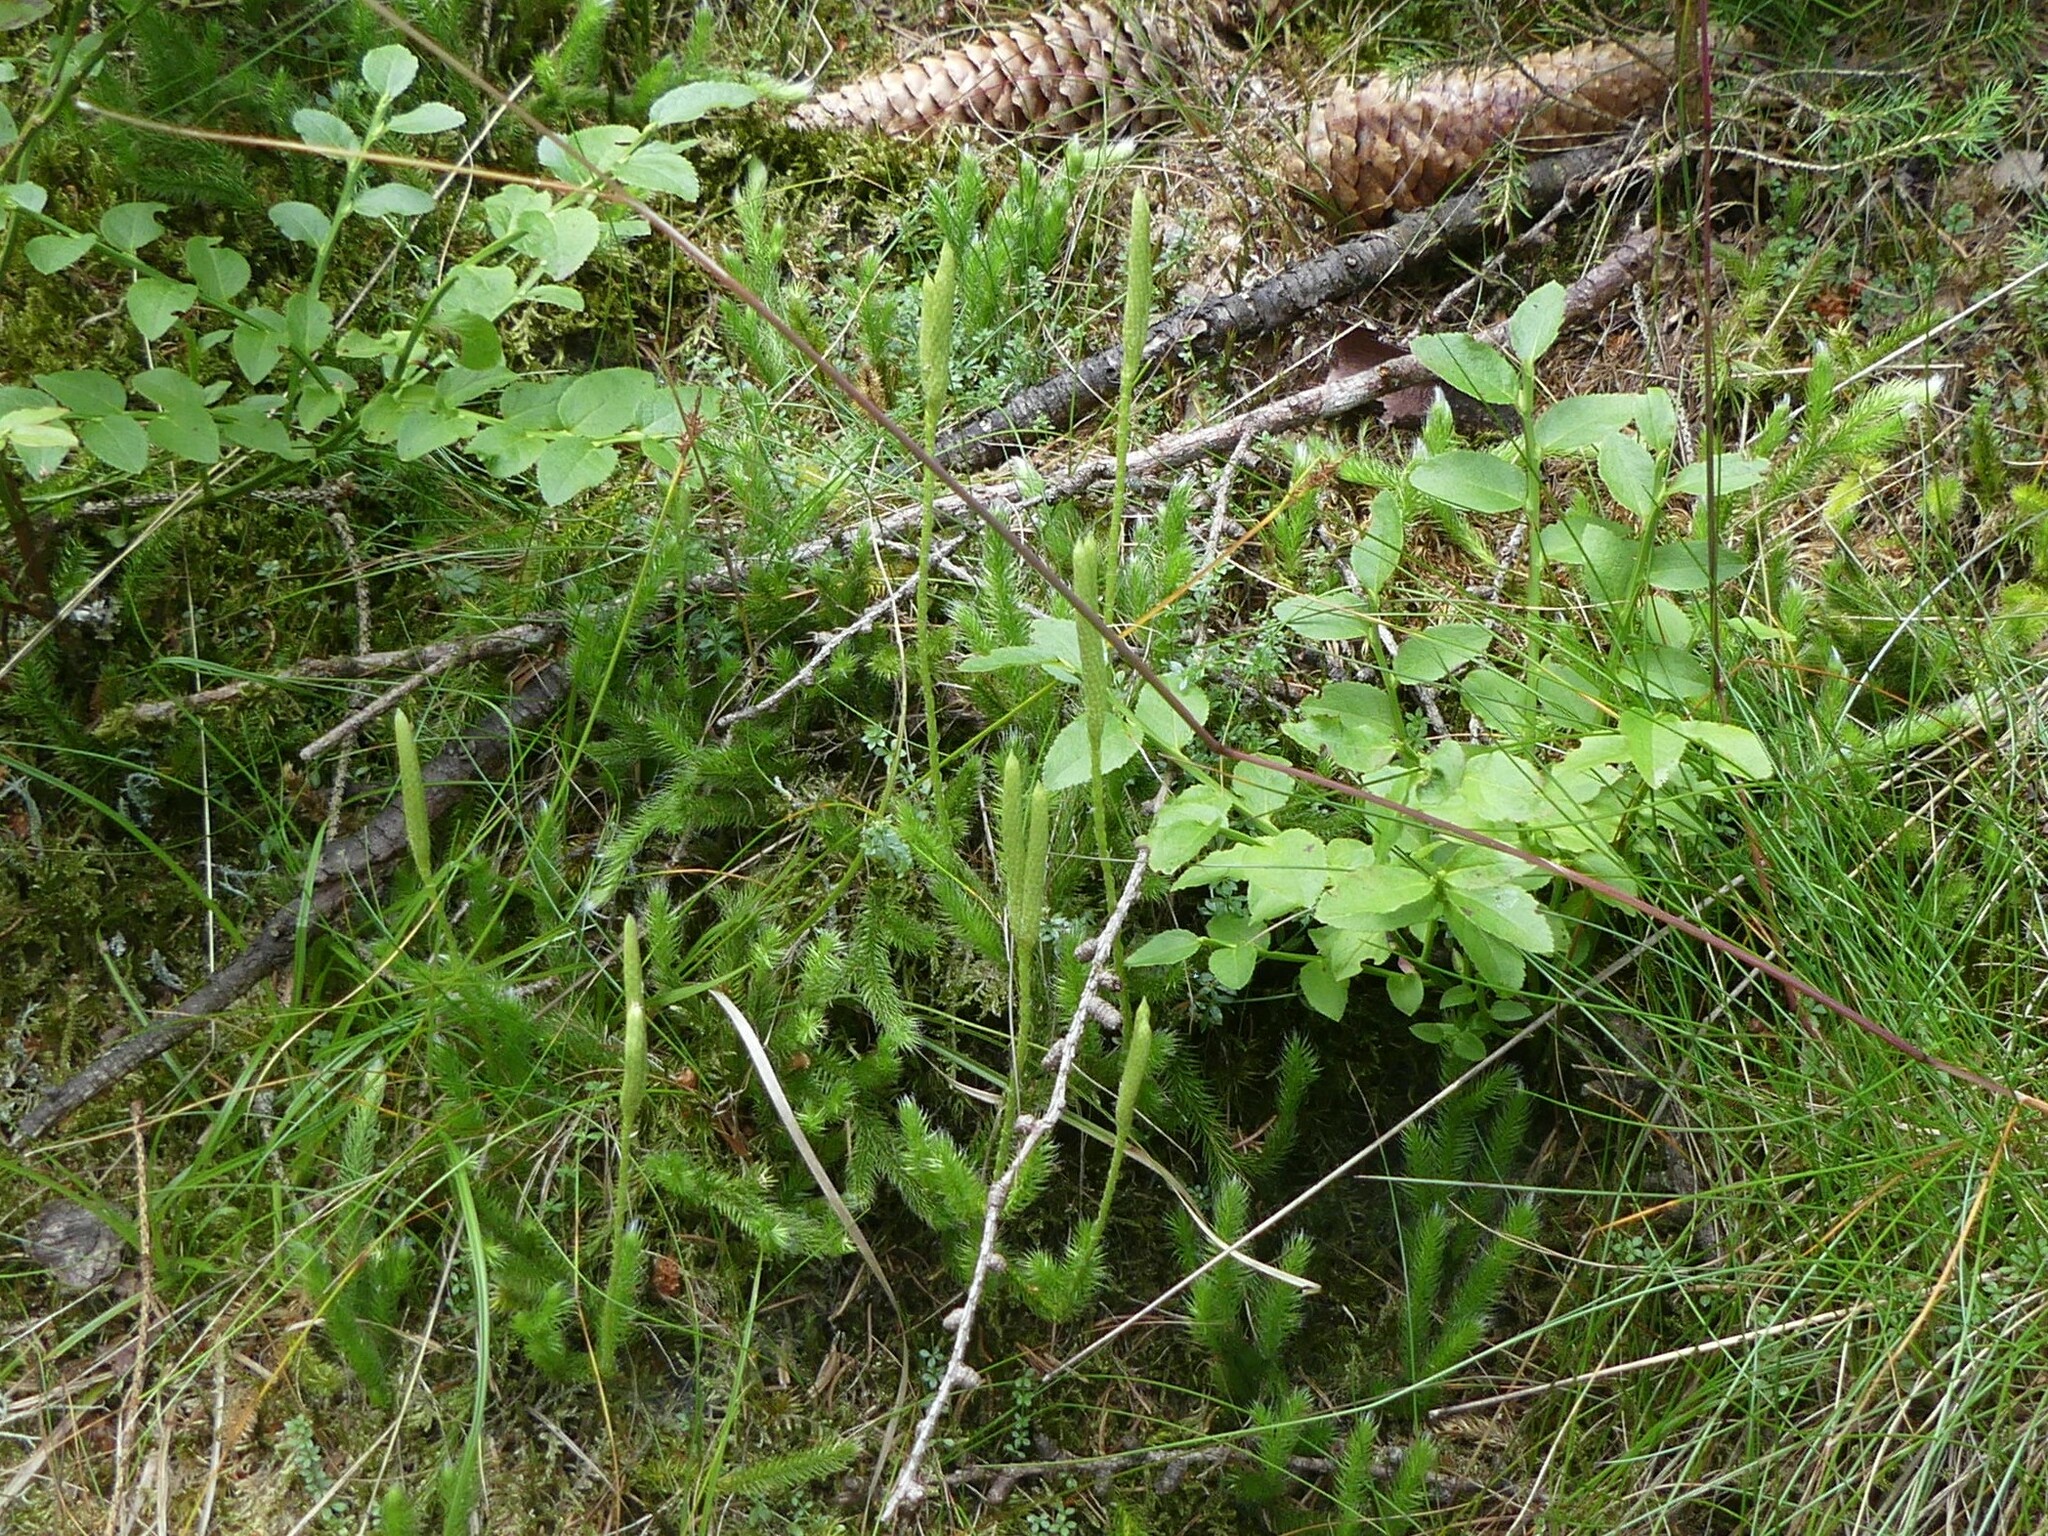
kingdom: Plantae
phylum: Tracheophyta
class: Lycopodiopsida
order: Lycopodiales
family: Lycopodiaceae
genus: Lycopodium
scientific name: Lycopodium clavatum
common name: Stag's-horn clubmoss
